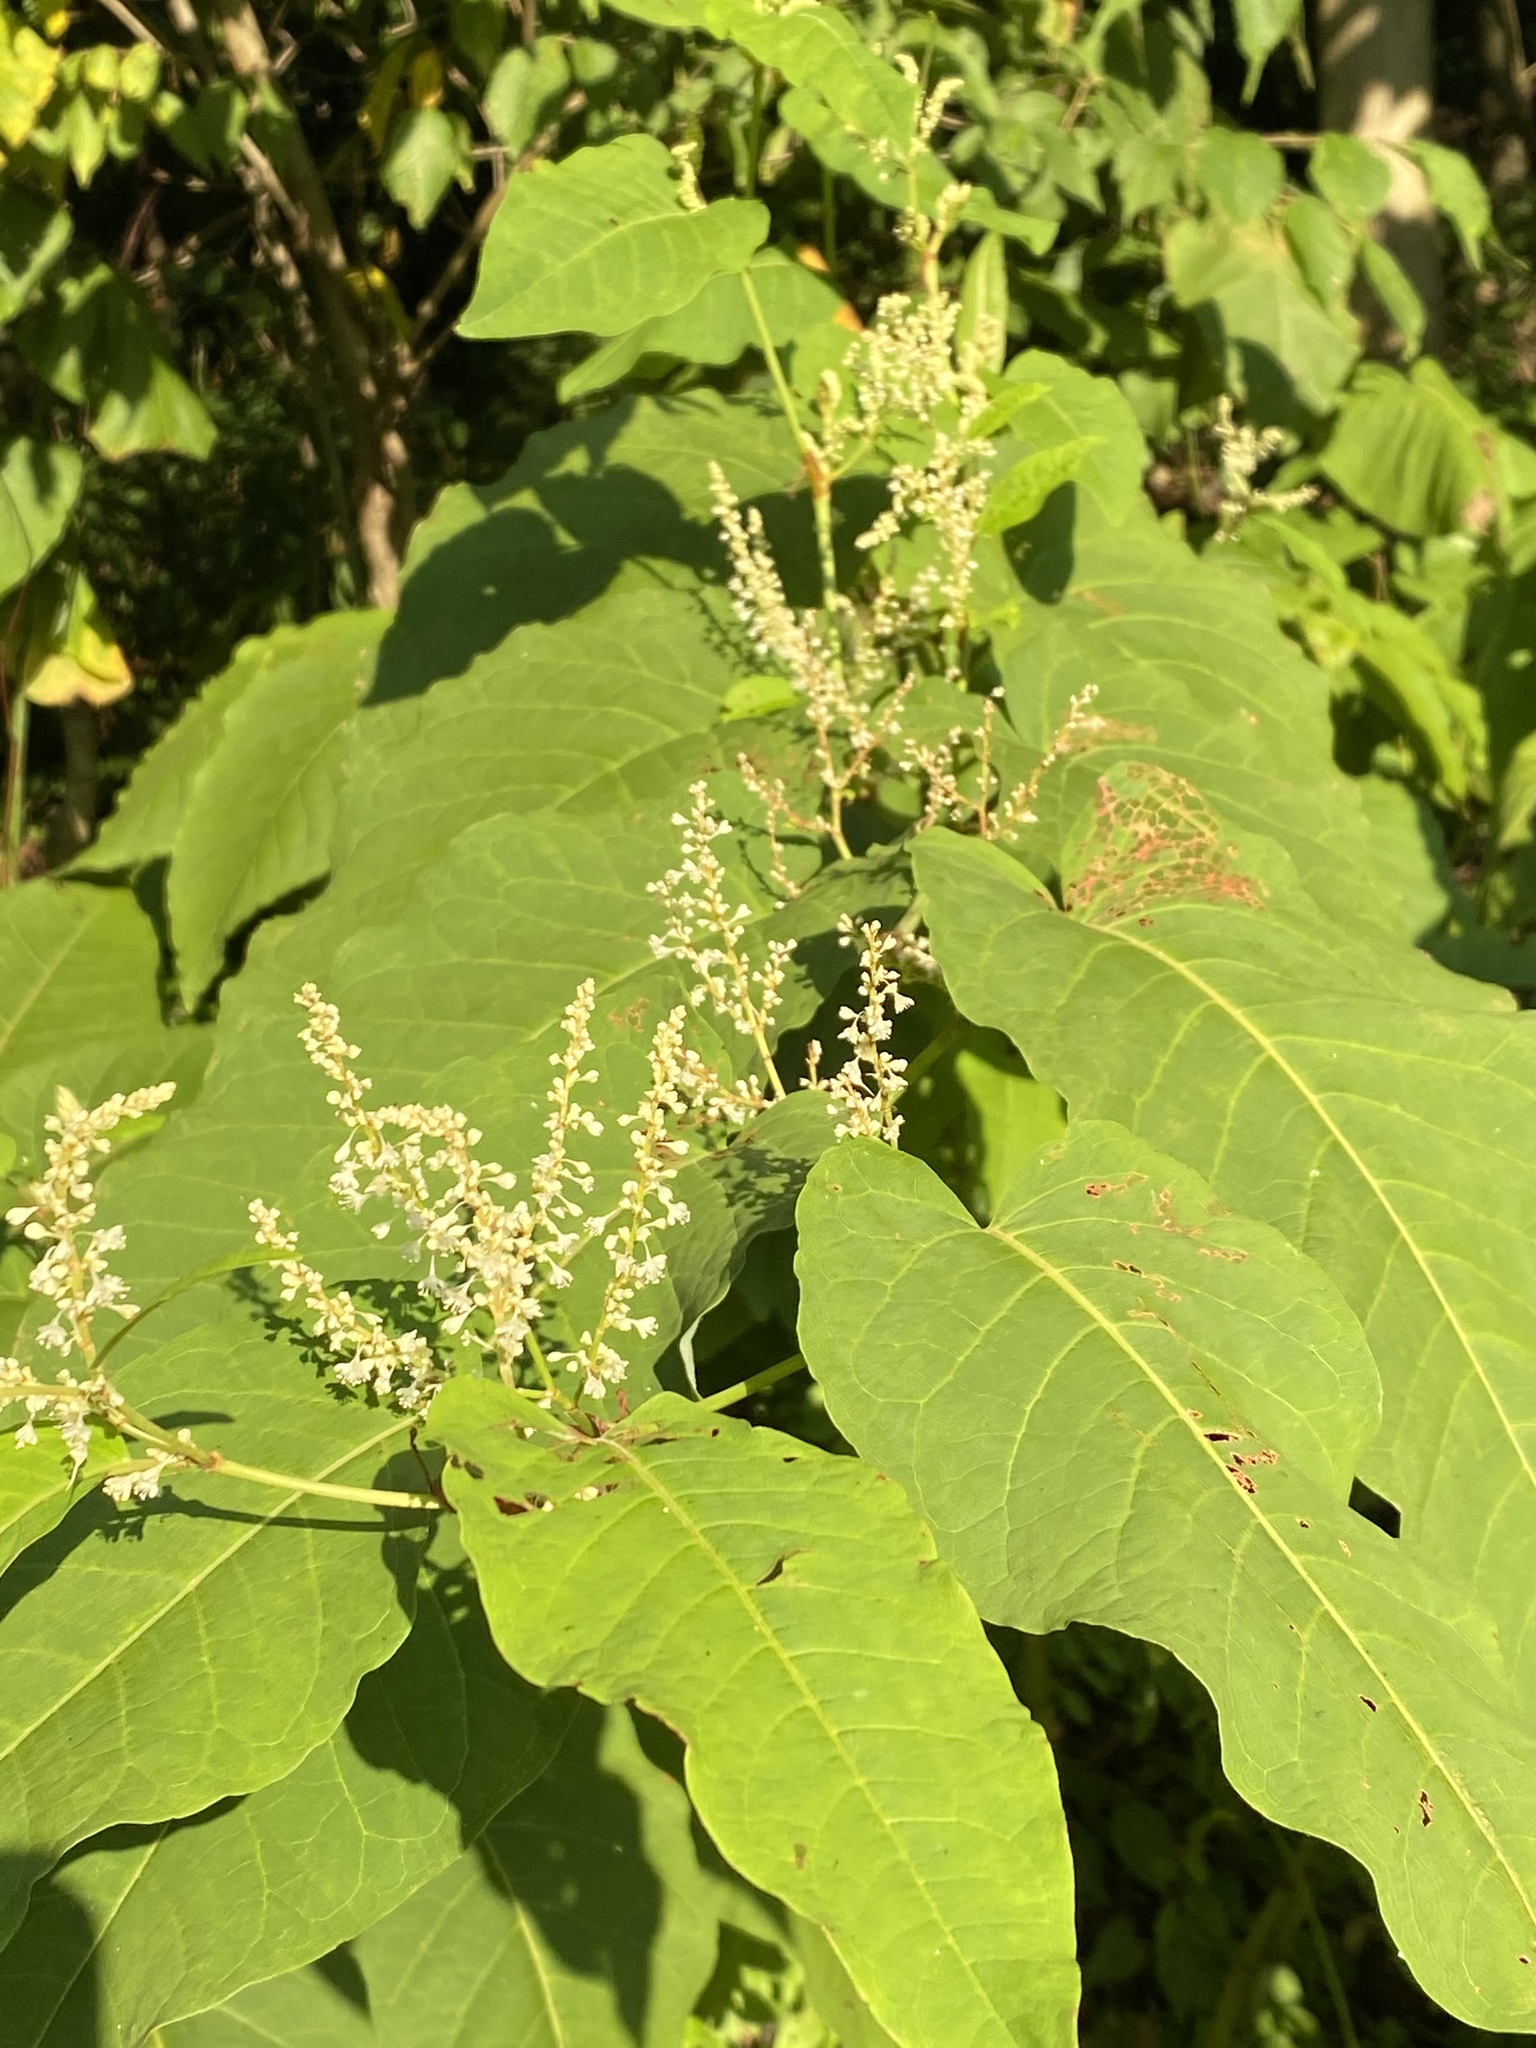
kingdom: Plantae
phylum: Tracheophyta
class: Magnoliopsida
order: Caryophyllales
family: Polygonaceae
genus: Reynoutria
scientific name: Reynoutria sachalinensis
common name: Giant knotweed
